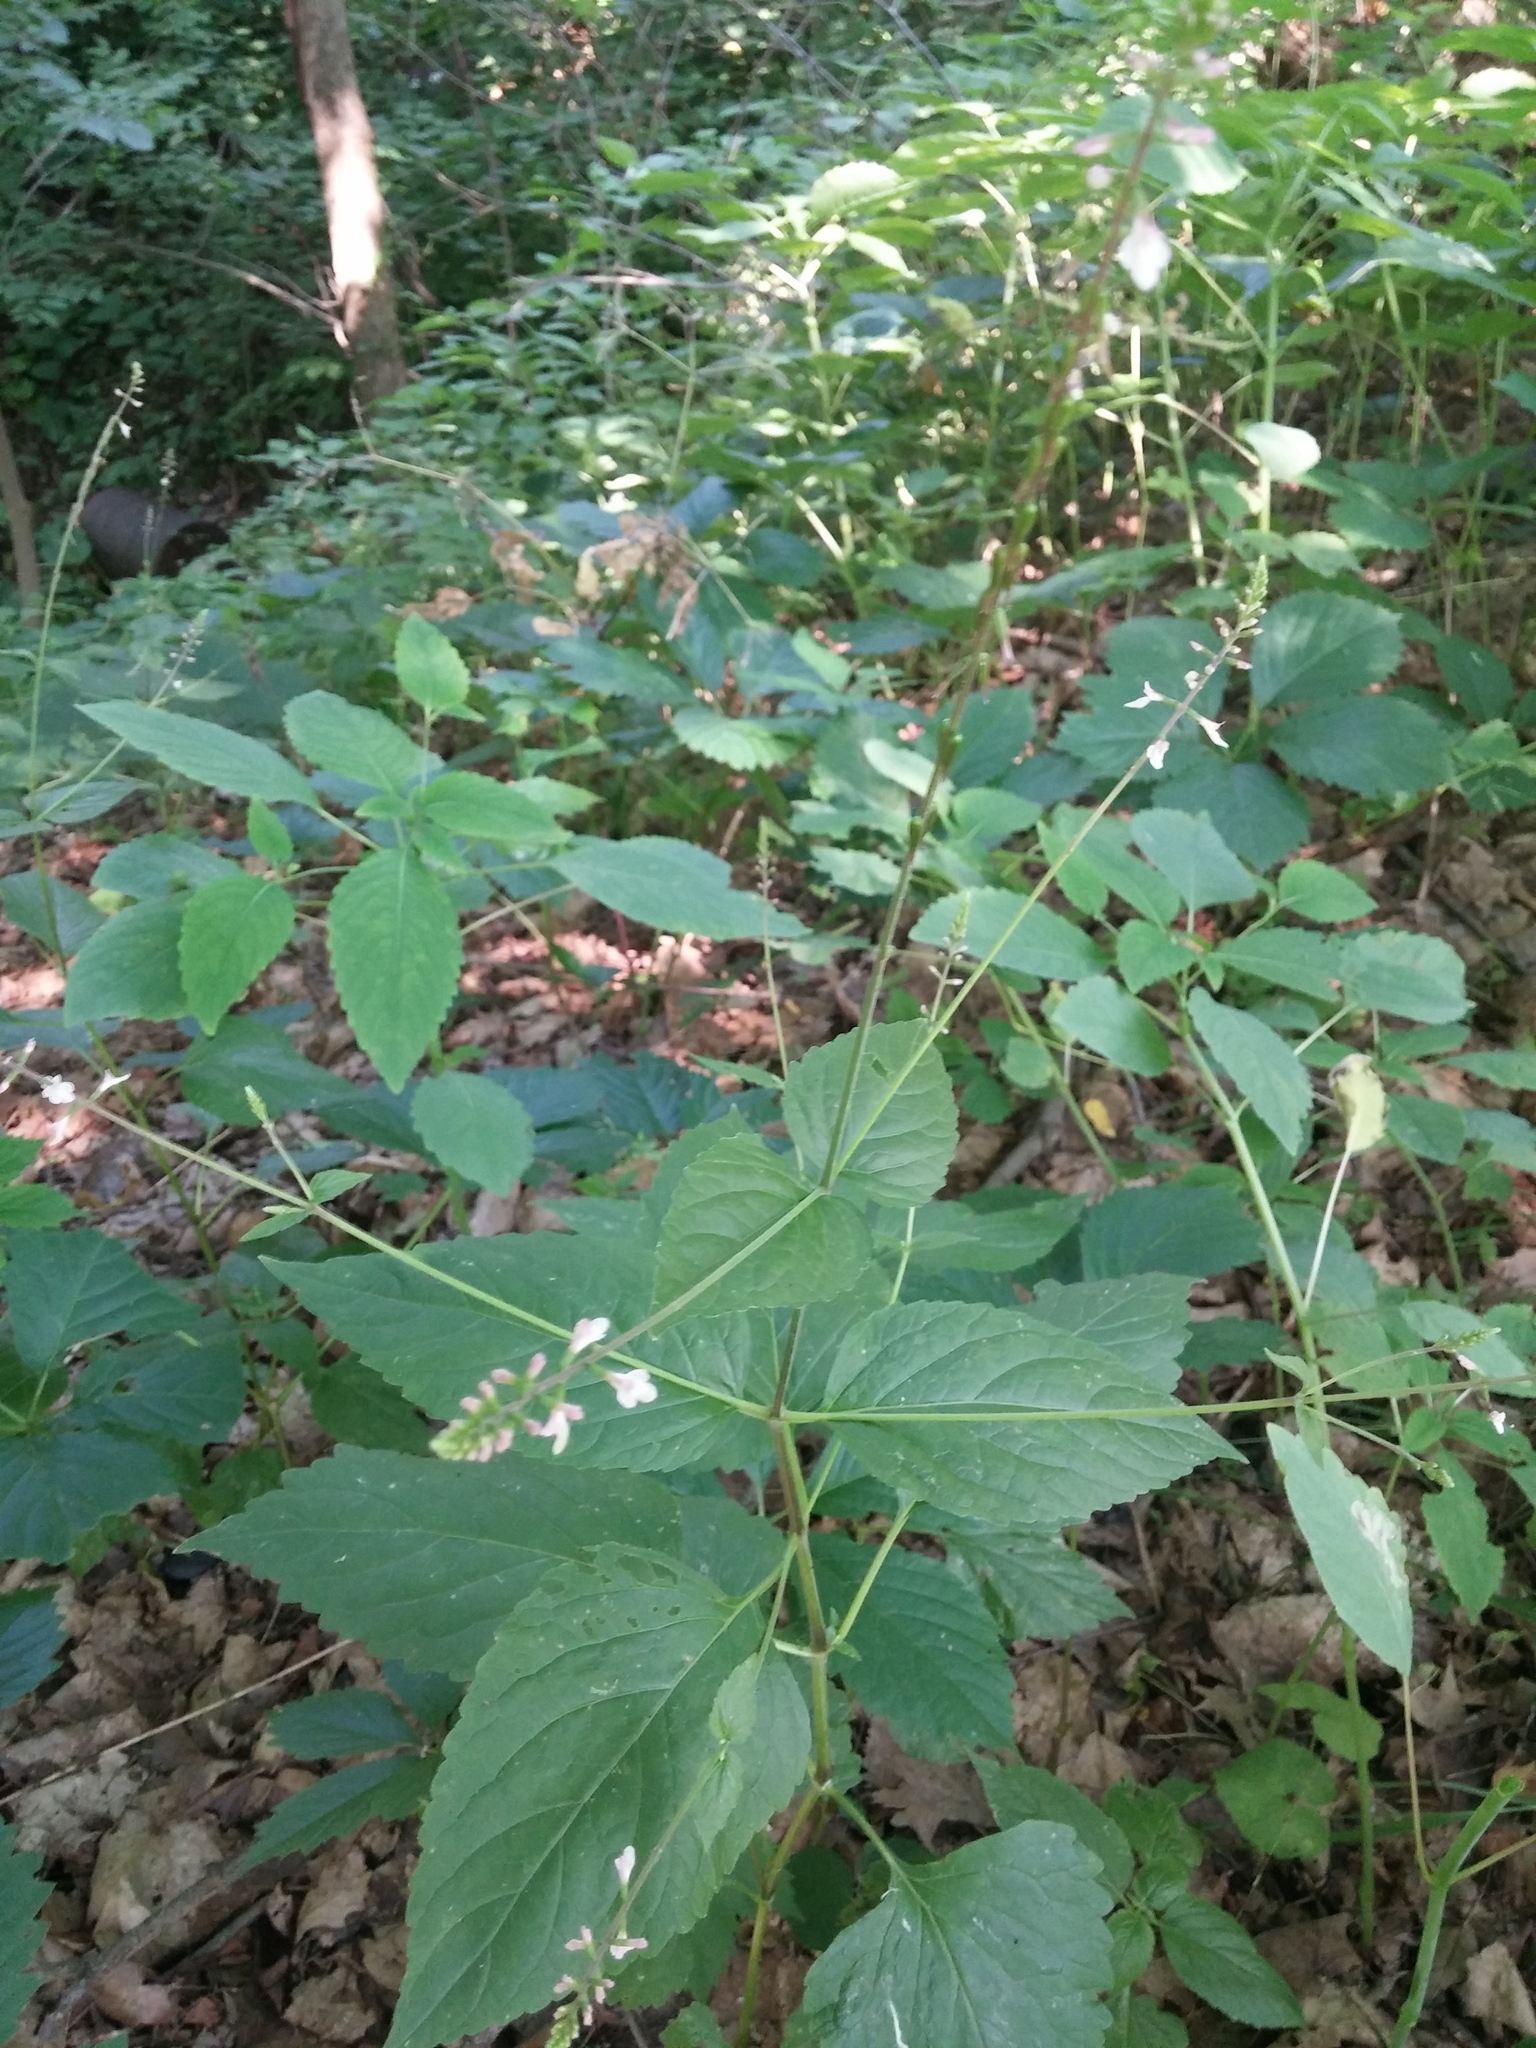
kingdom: Plantae
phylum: Tracheophyta
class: Magnoliopsida
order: Lamiales
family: Phrymaceae
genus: Phryma
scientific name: Phryma leptostachya
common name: American lopseed
